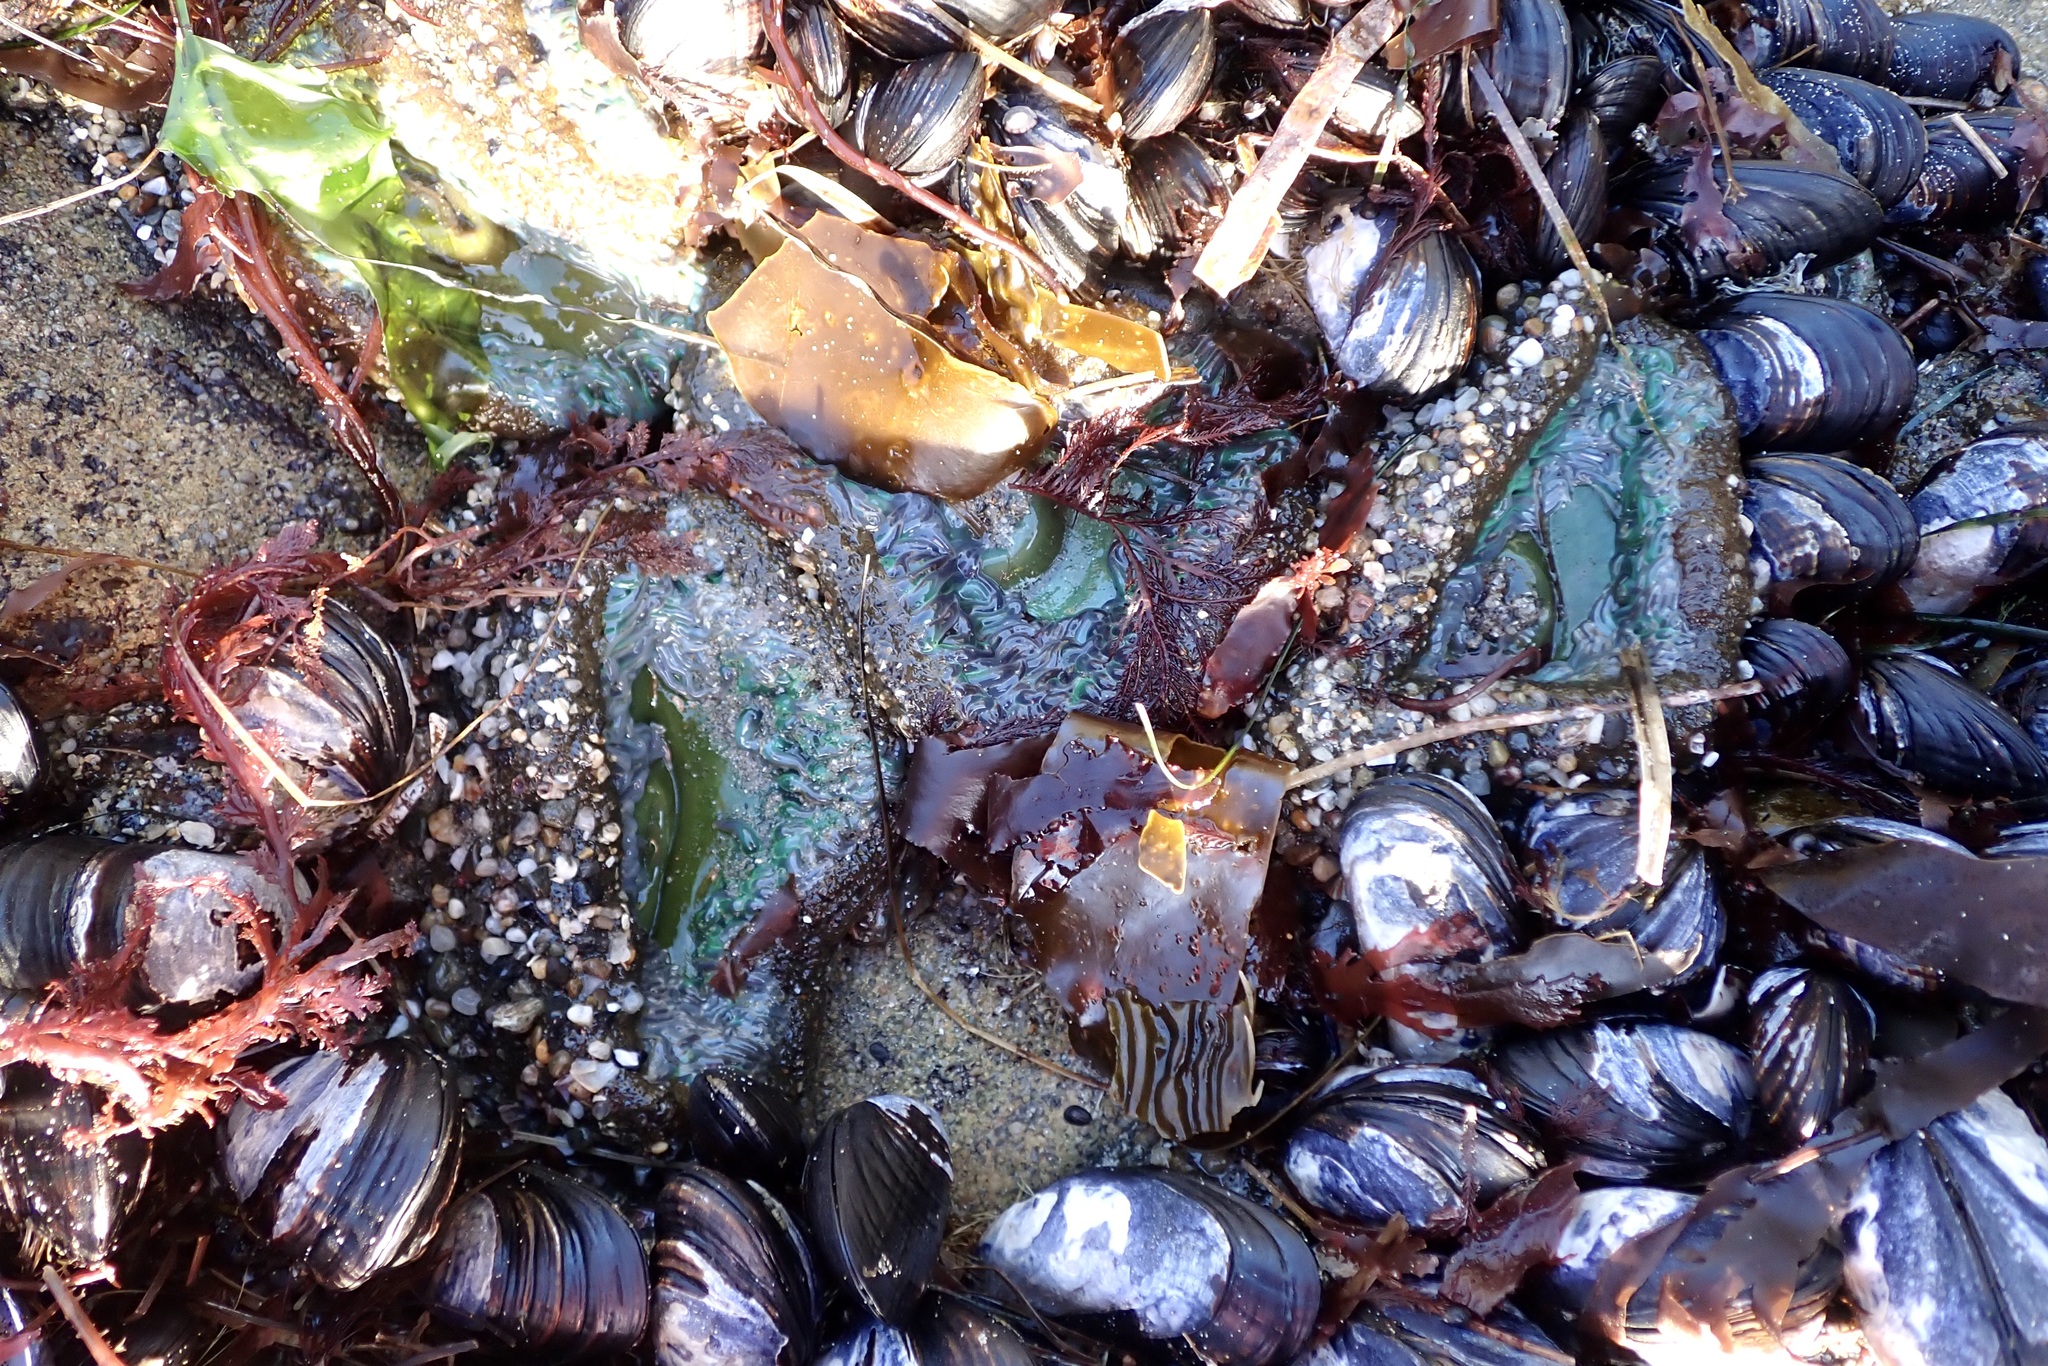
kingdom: Animalia
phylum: Cnidaria
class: Anthozoa
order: Actiniaria
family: Actiniidae
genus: Anthopleura
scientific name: Anthopleura xanthogrammica
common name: Giant green anemone
